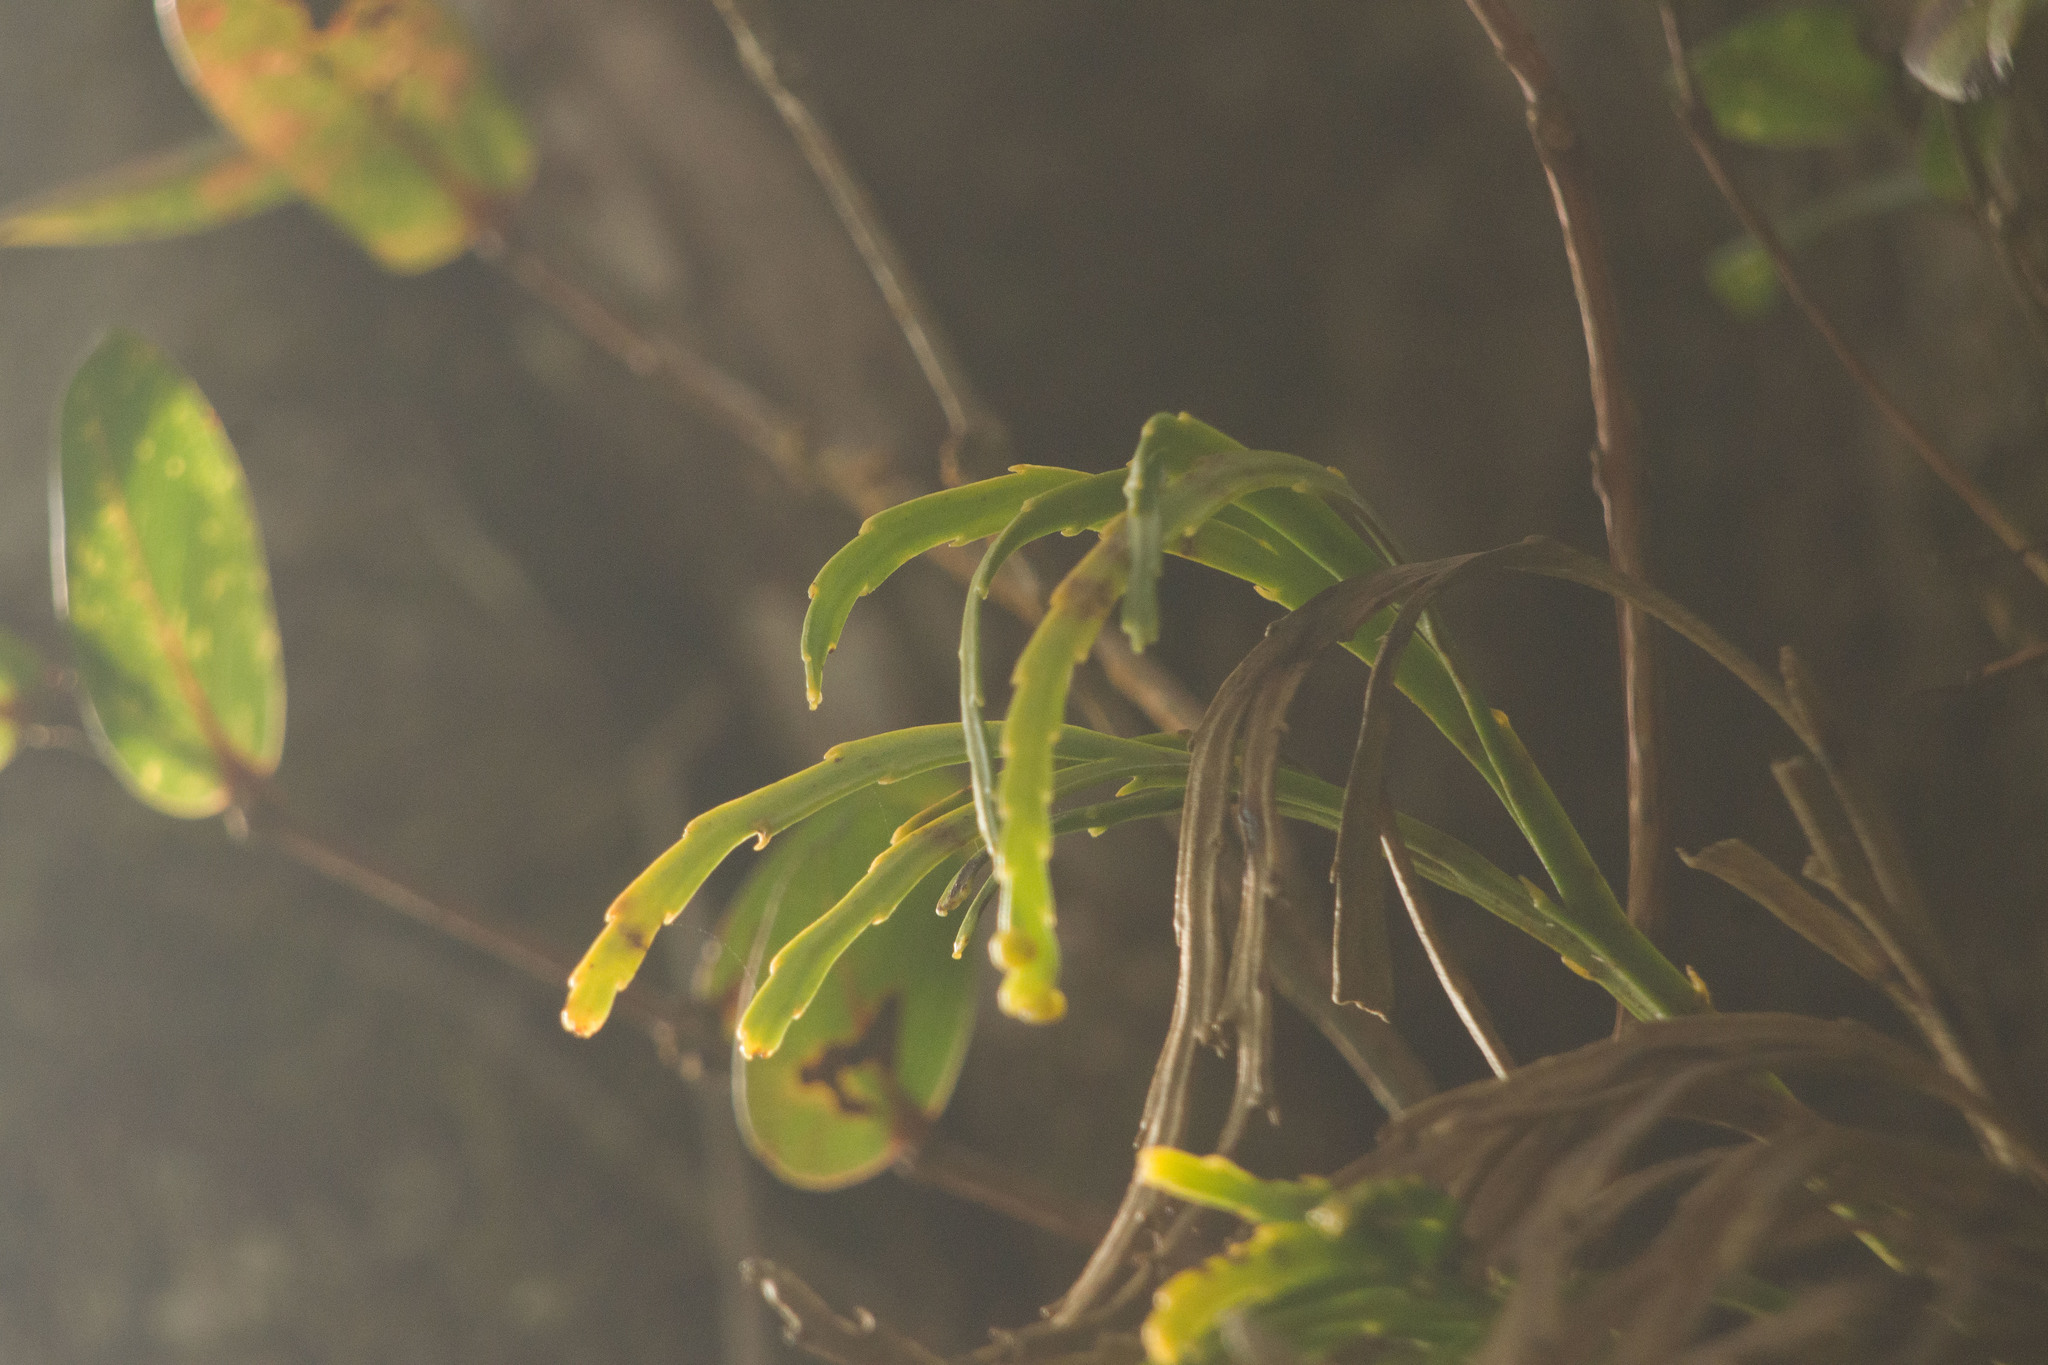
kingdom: Plantae
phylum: Tracheophyta
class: Polypodiopsida
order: Psilotales
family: Psilotaceae
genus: Psilotum
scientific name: Psilotum complanatum
